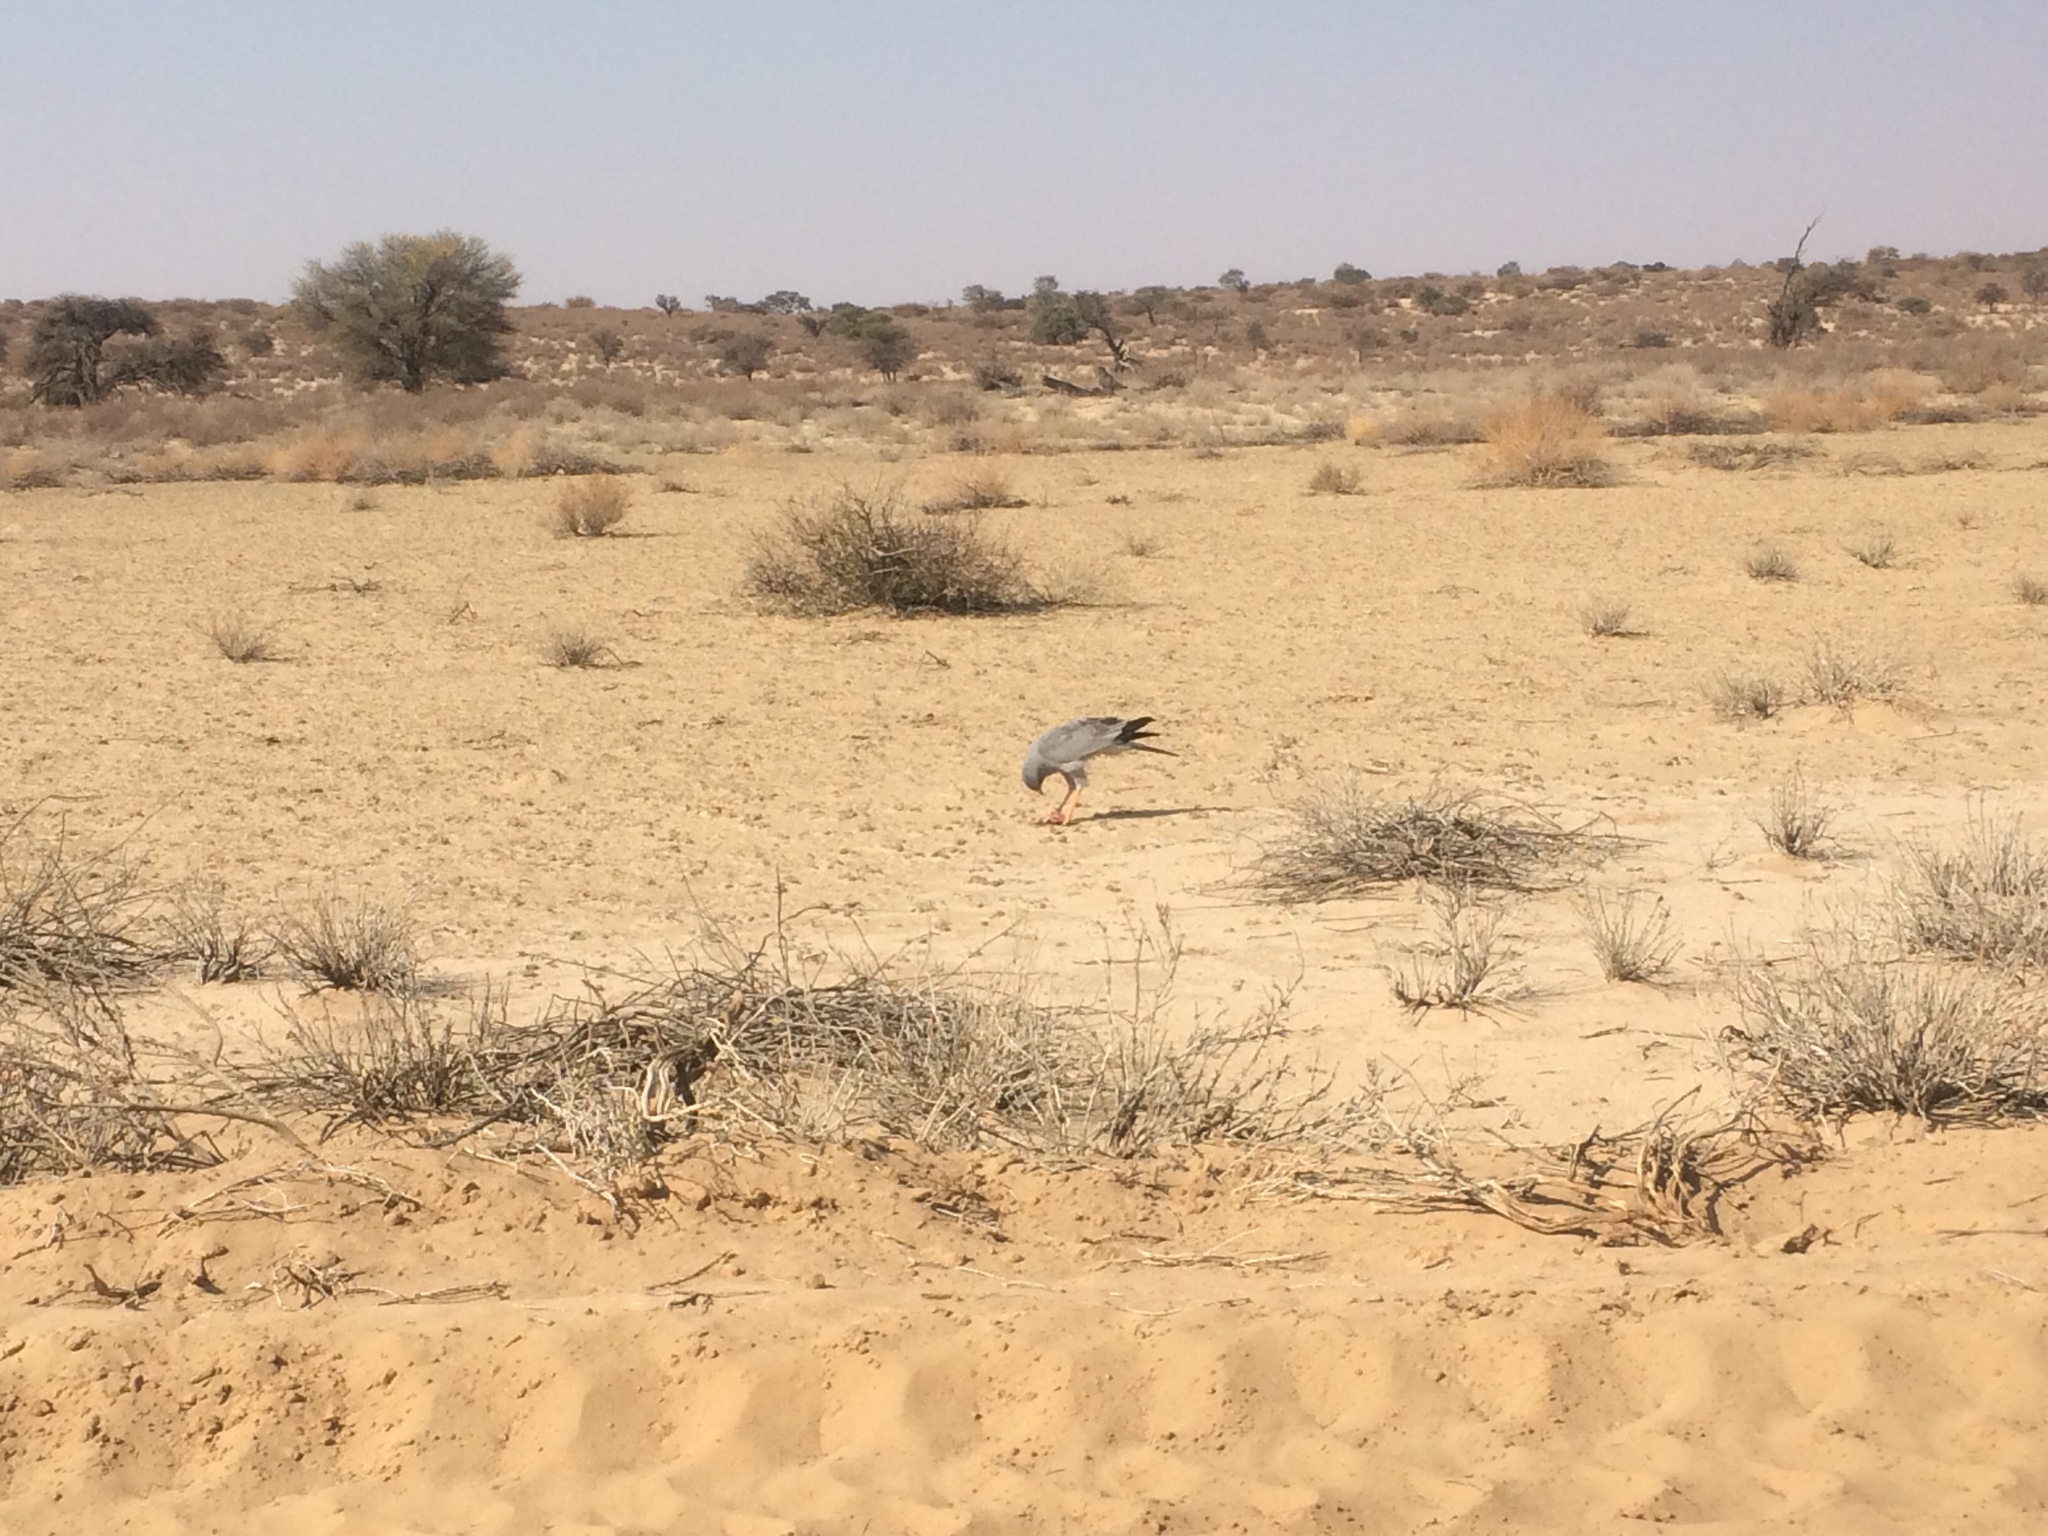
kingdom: Animalia
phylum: Chordata
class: Aves
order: Accipitriformes
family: Accipitridae
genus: Melierax
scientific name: Melierax canorus
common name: Pale chanting-goshawk
